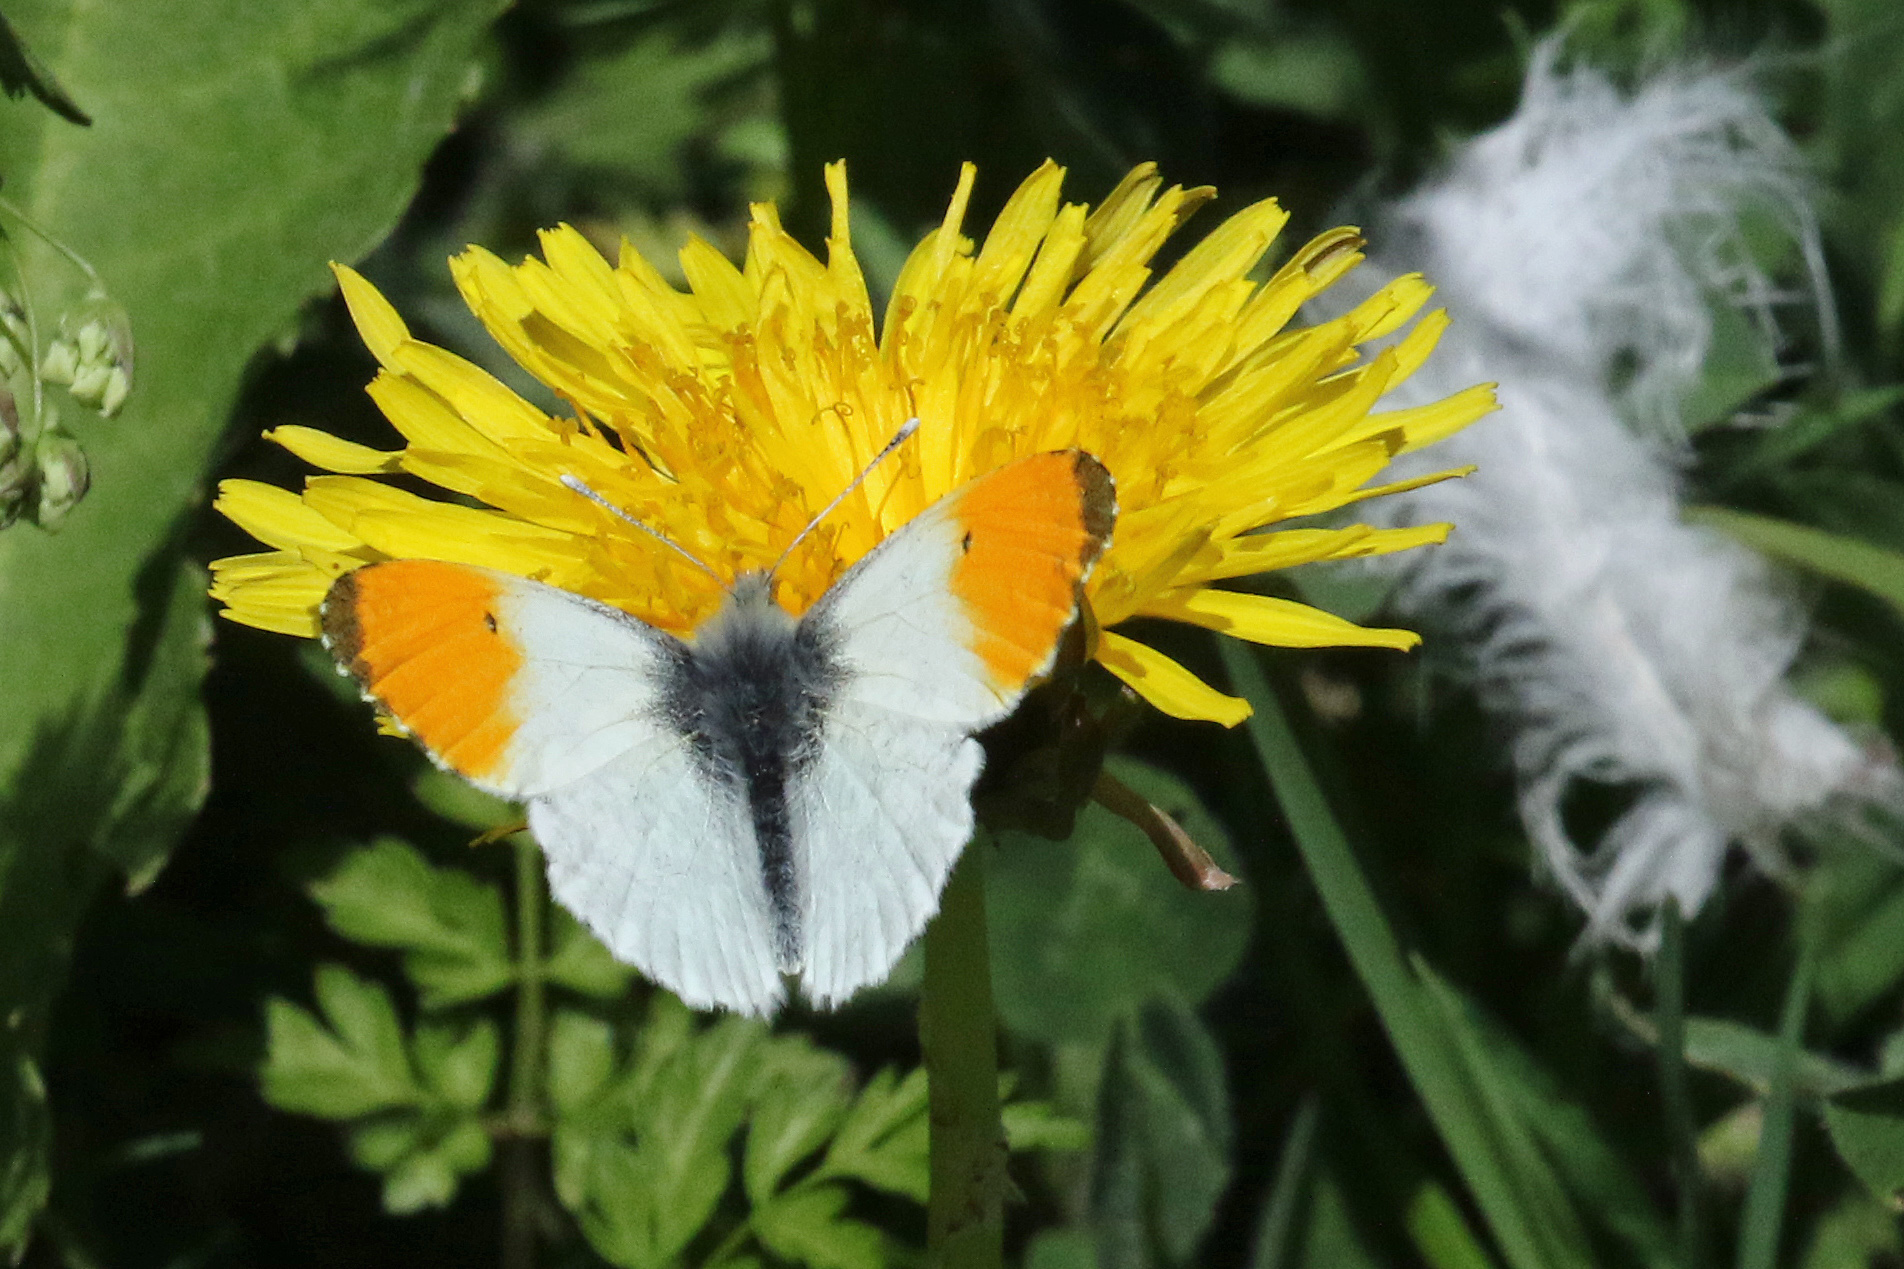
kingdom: Animalia
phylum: Arthropoda
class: Insecta
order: Lepidoptera
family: Pieridae
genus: Anthocharis
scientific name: Anthocharis cardamines
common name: Orange-tip
